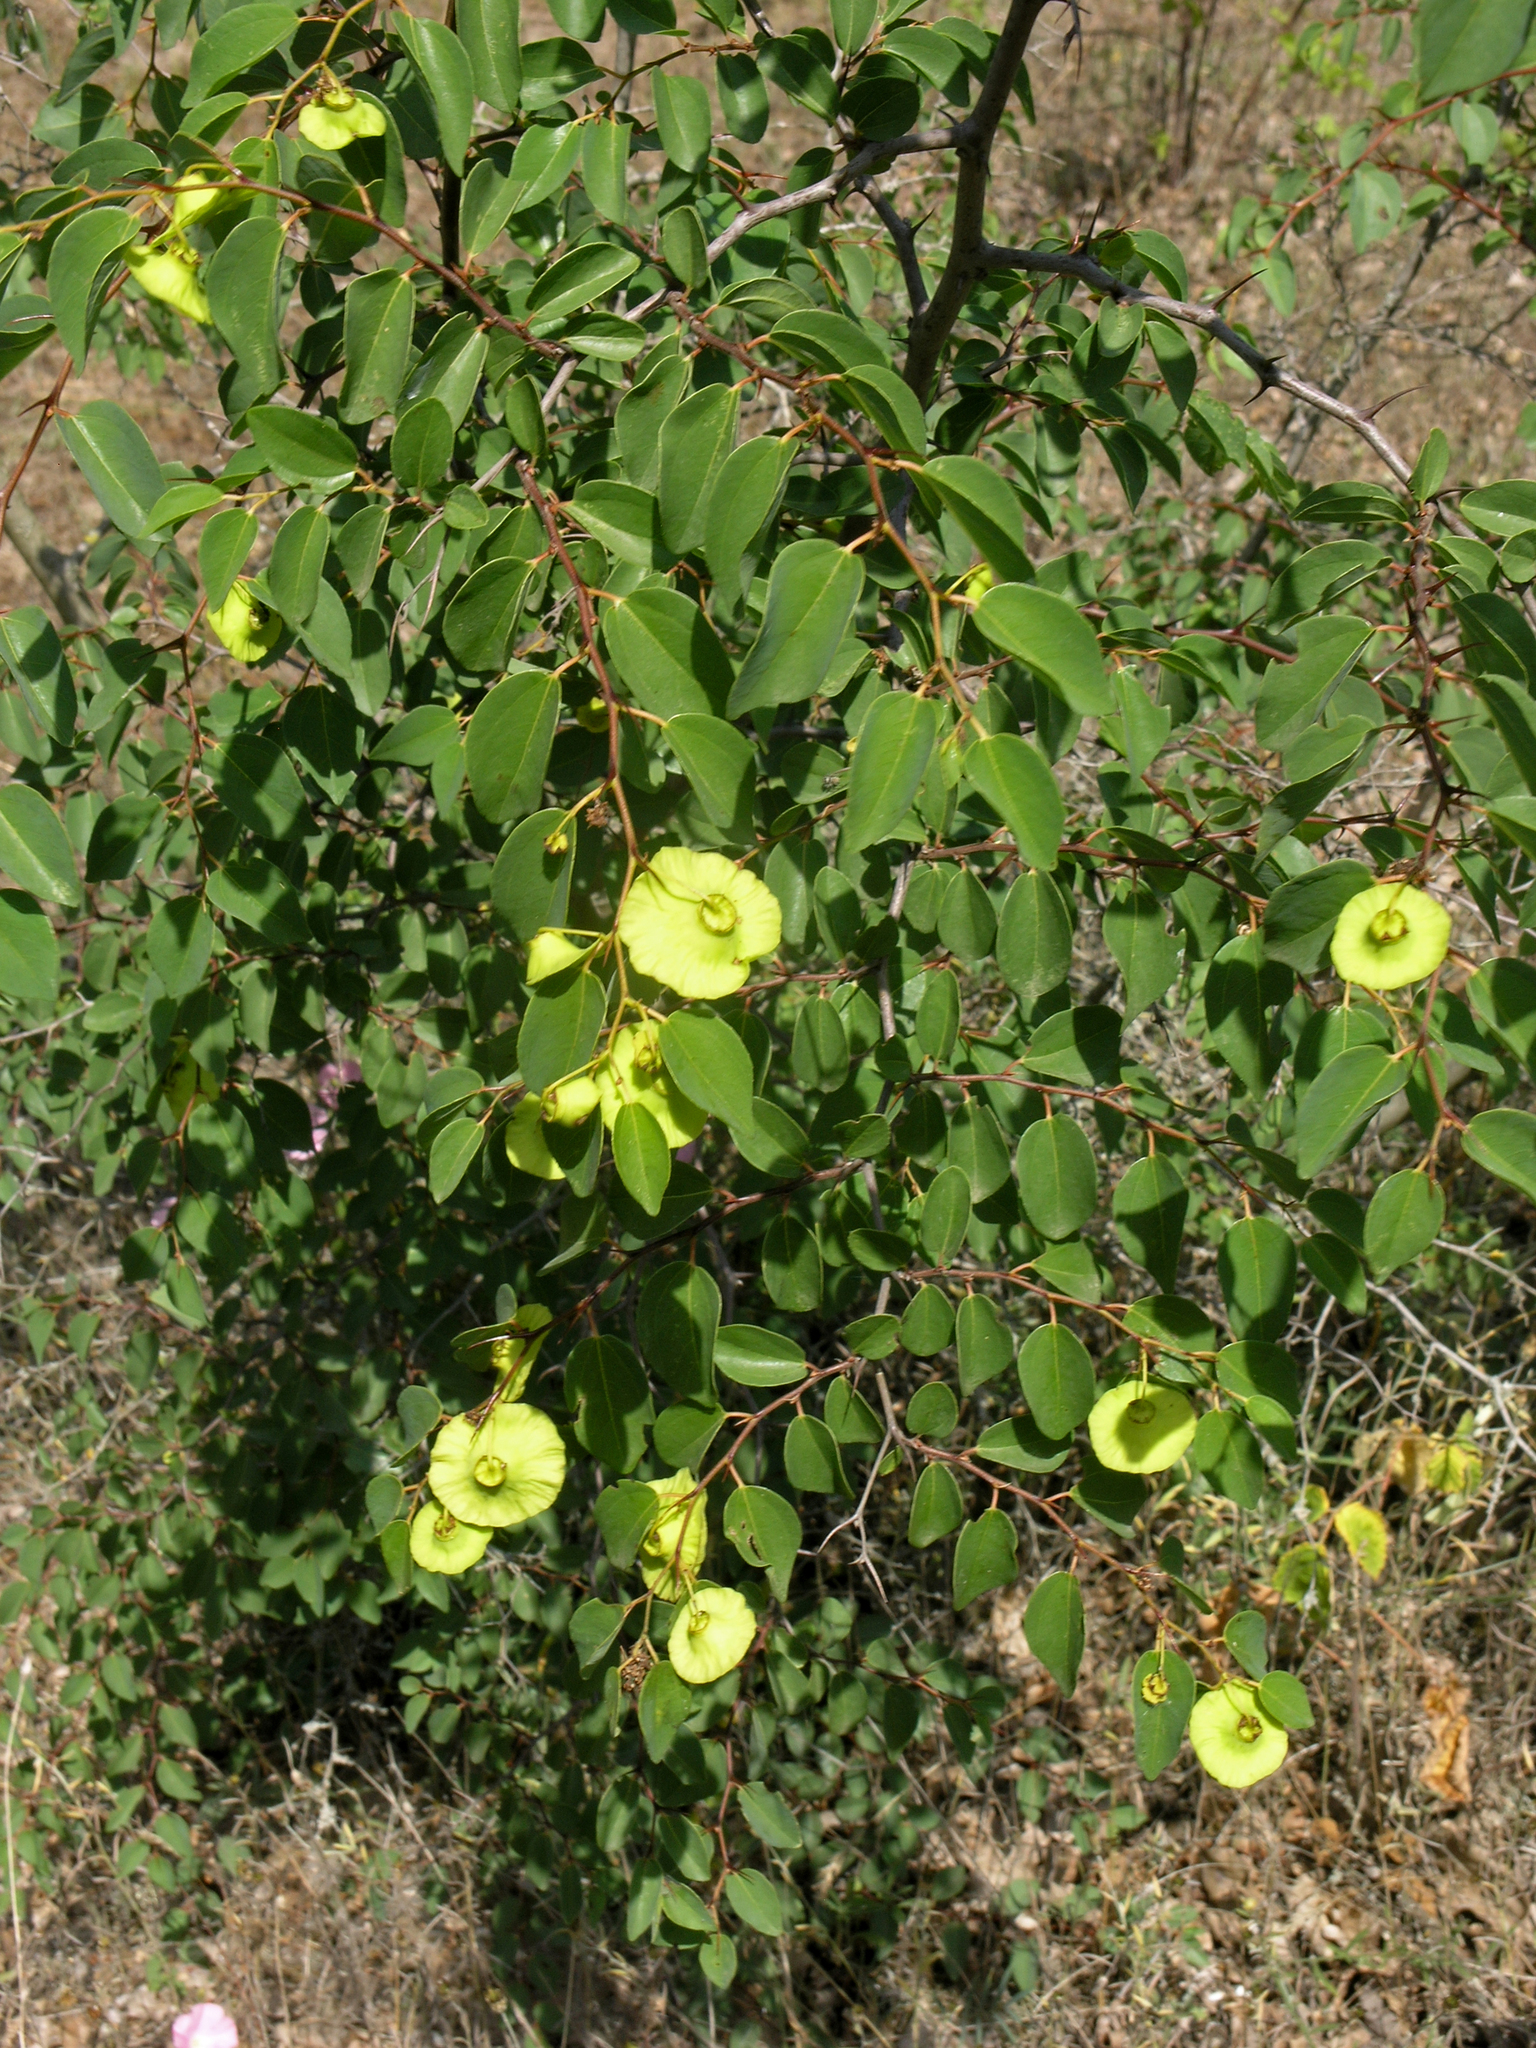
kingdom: Plantae
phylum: Tracheophyta
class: Magnoliopsida
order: Rosales
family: Rhamnaceae
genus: Paliurus
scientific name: Paliurus spina-christi
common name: Jeruselem thorn
